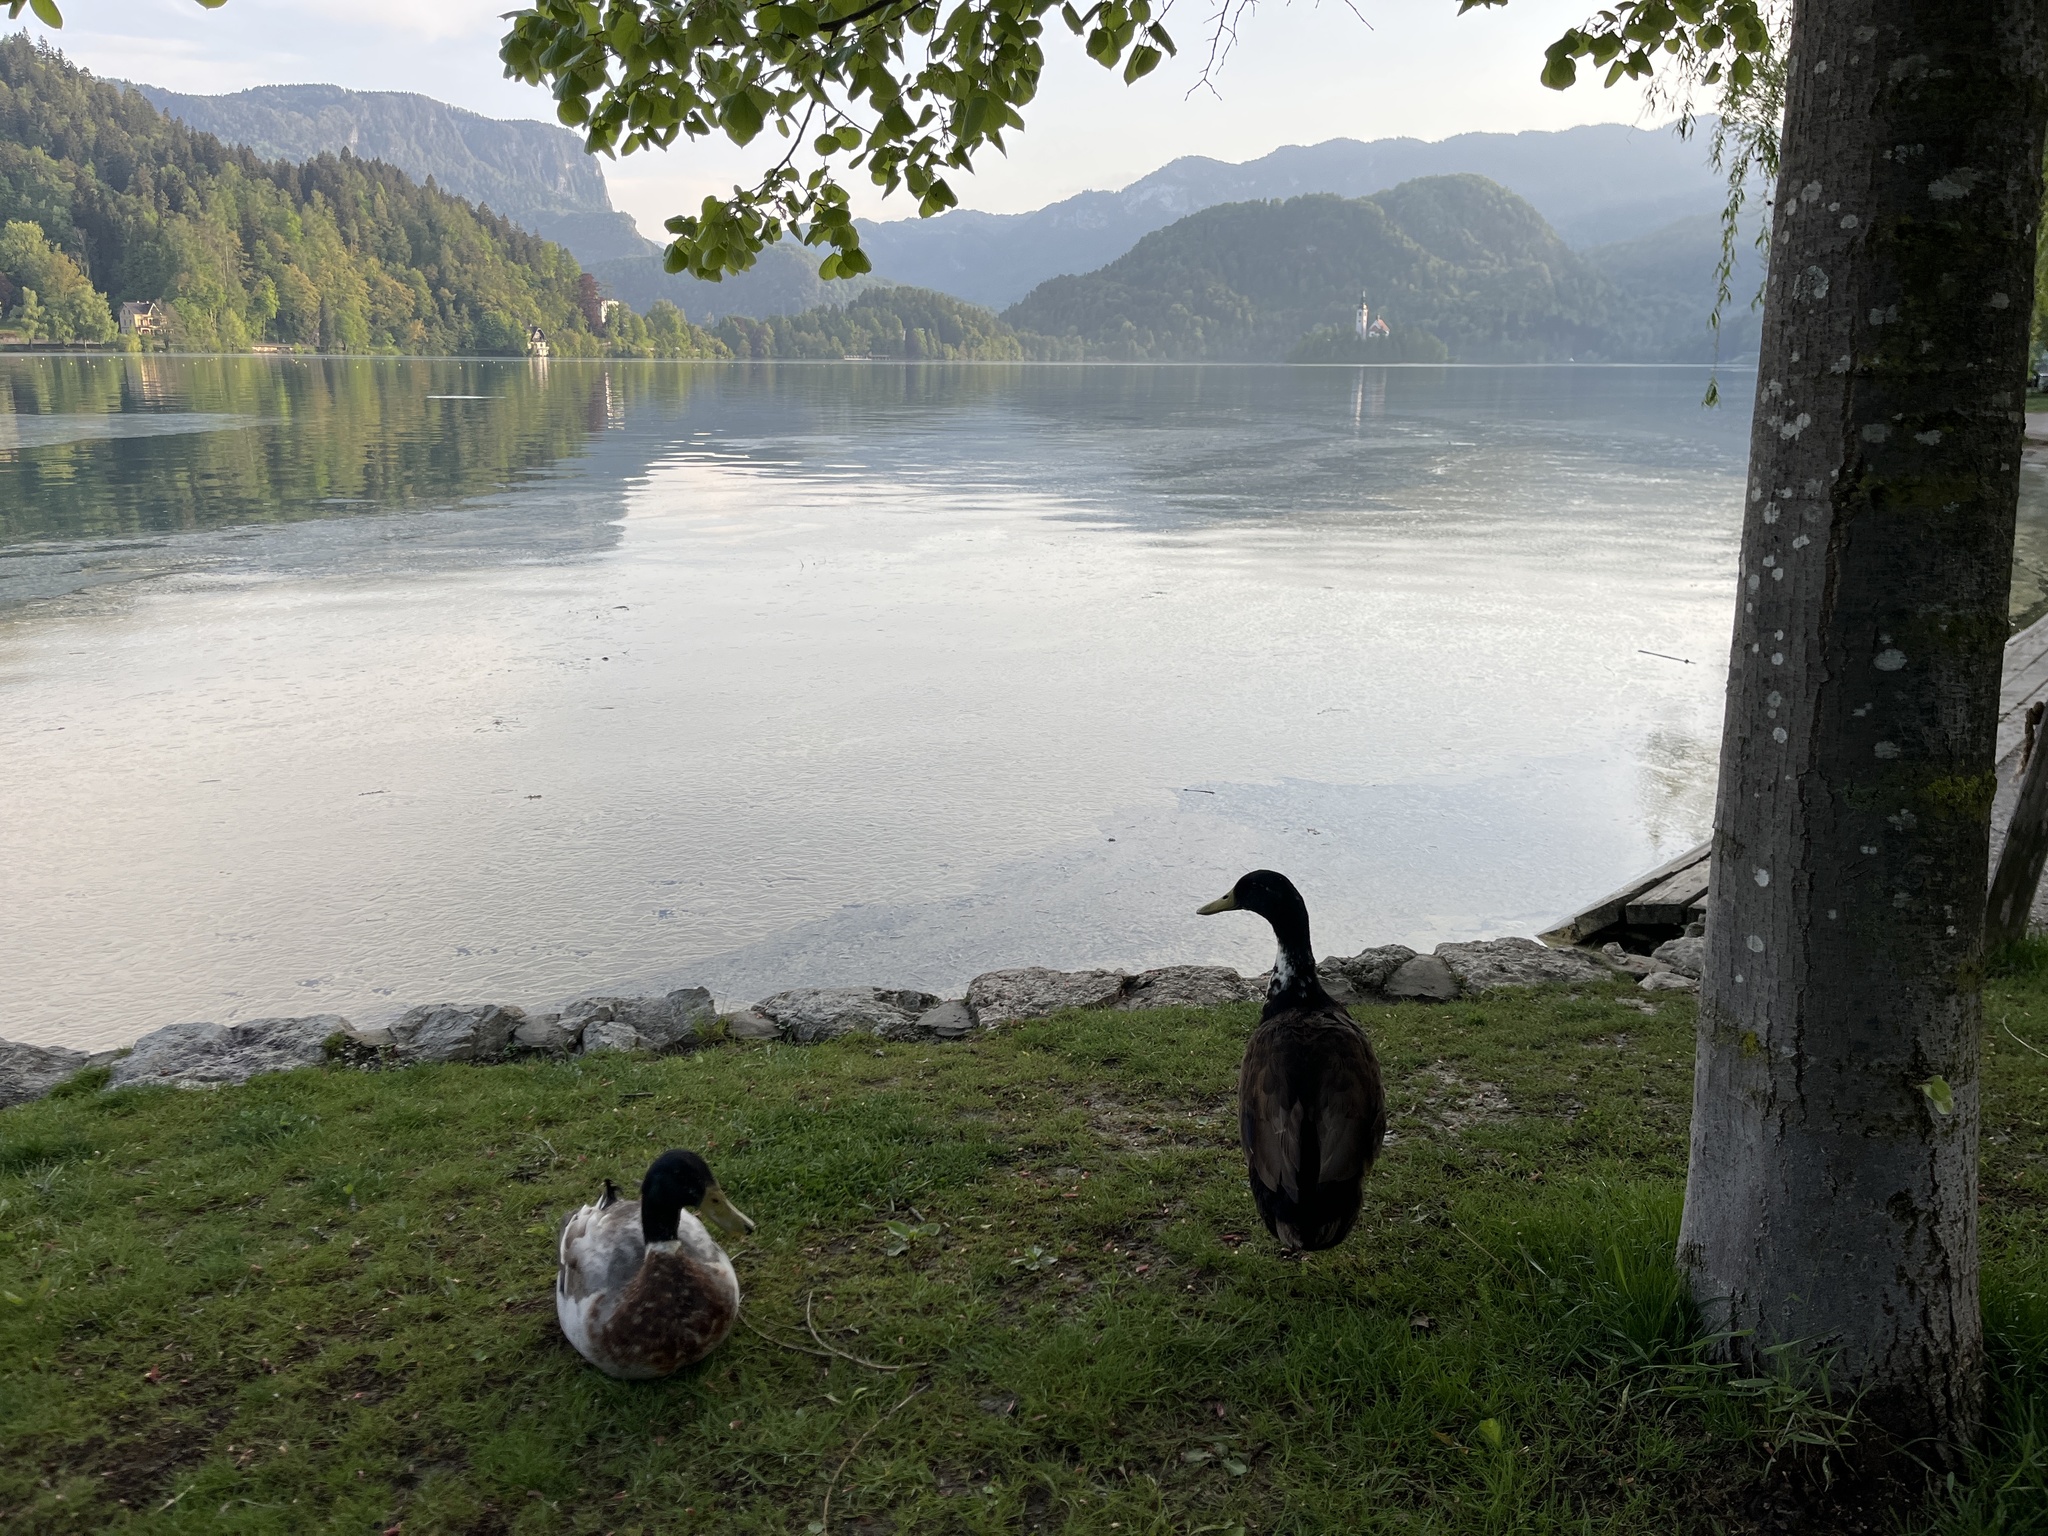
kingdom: Animalia
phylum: Chordata
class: Aves
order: Anseriformes
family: Anatidae
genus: Anas
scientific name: Anas platyrhynchos
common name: Mallard
